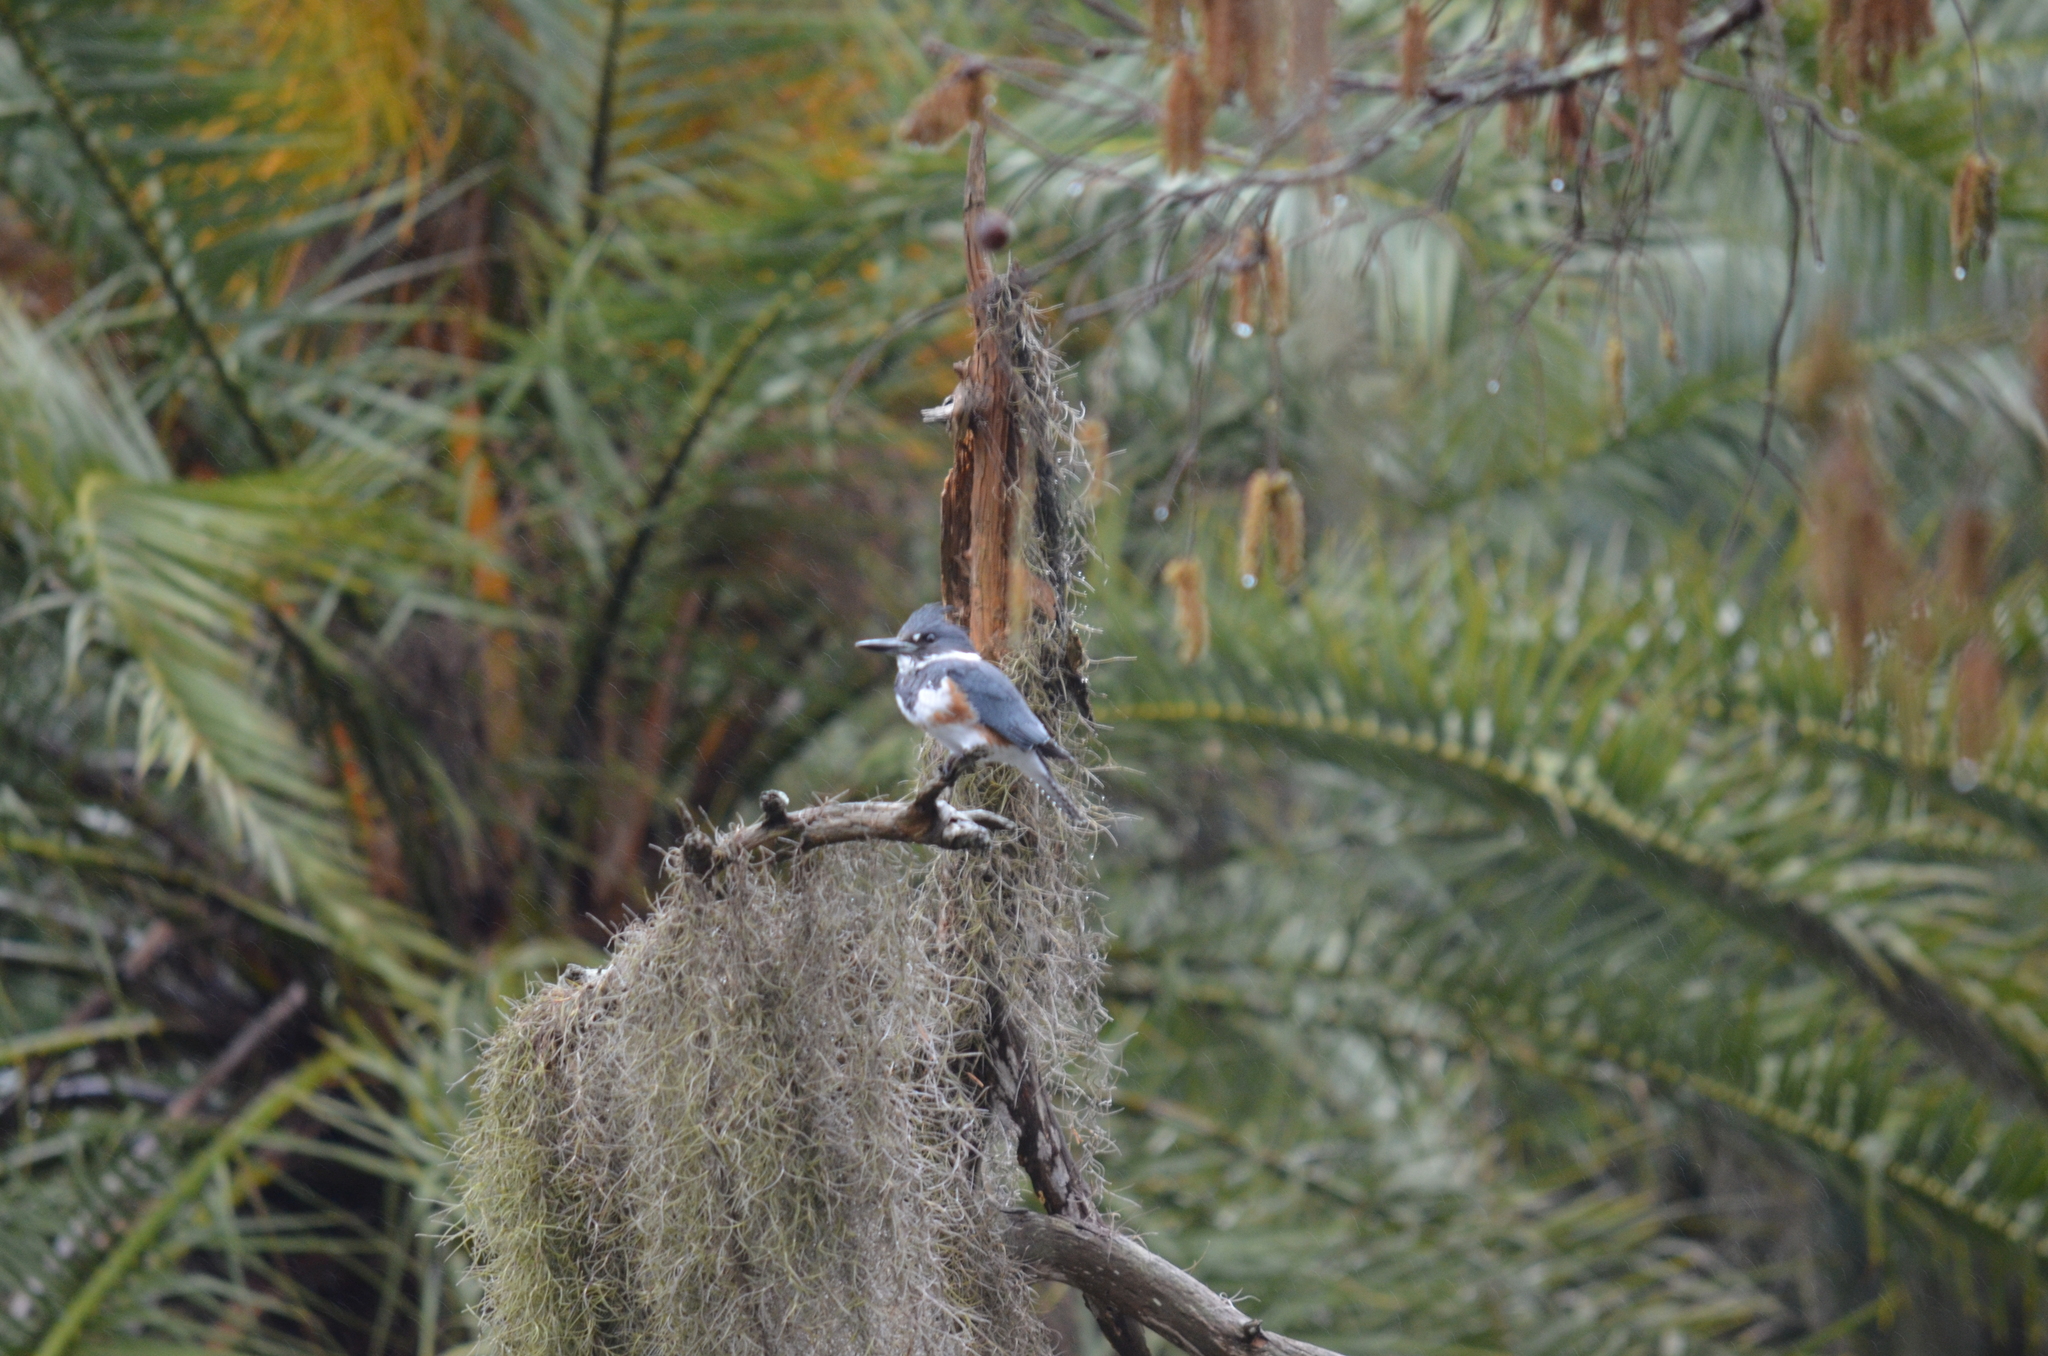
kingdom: Animalia
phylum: Chordata
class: Aves
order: Coraciiformes
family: Alcedinidae
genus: Megaceryle
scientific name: Megaceryle alcyon
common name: Belted kingfisher
